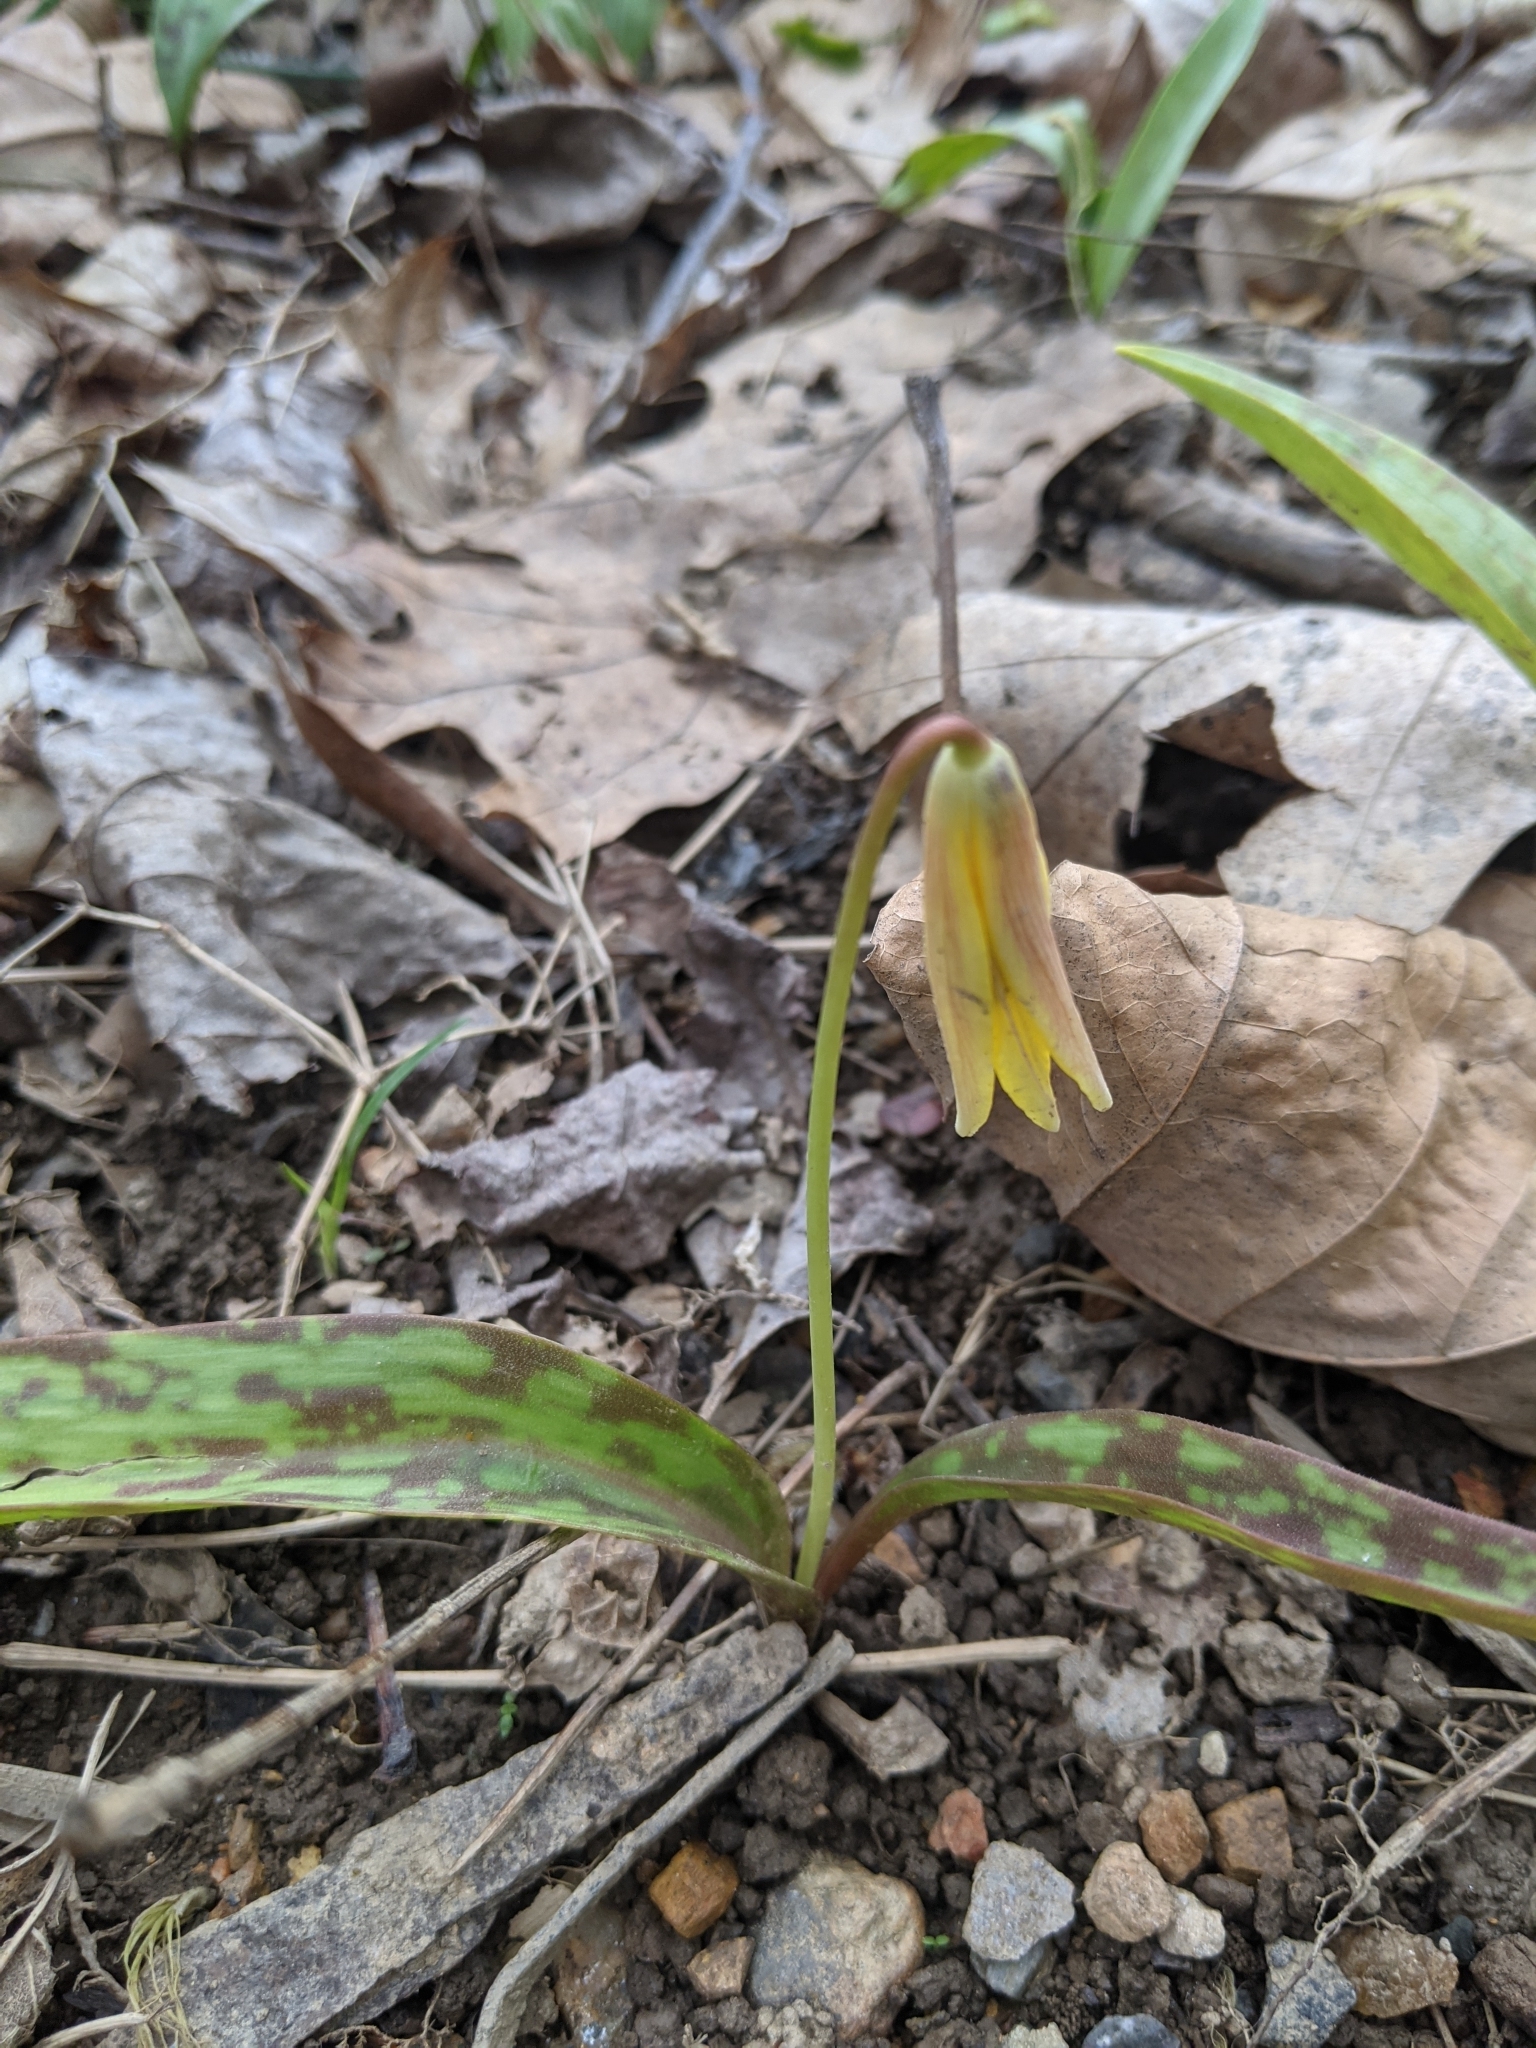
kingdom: Plantae
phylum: Tracheophyta
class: Liliopsida
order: Liliales
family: Liliaceae
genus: Erythronium
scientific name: Erythronium americanum
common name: Yellow adder's-tongue
